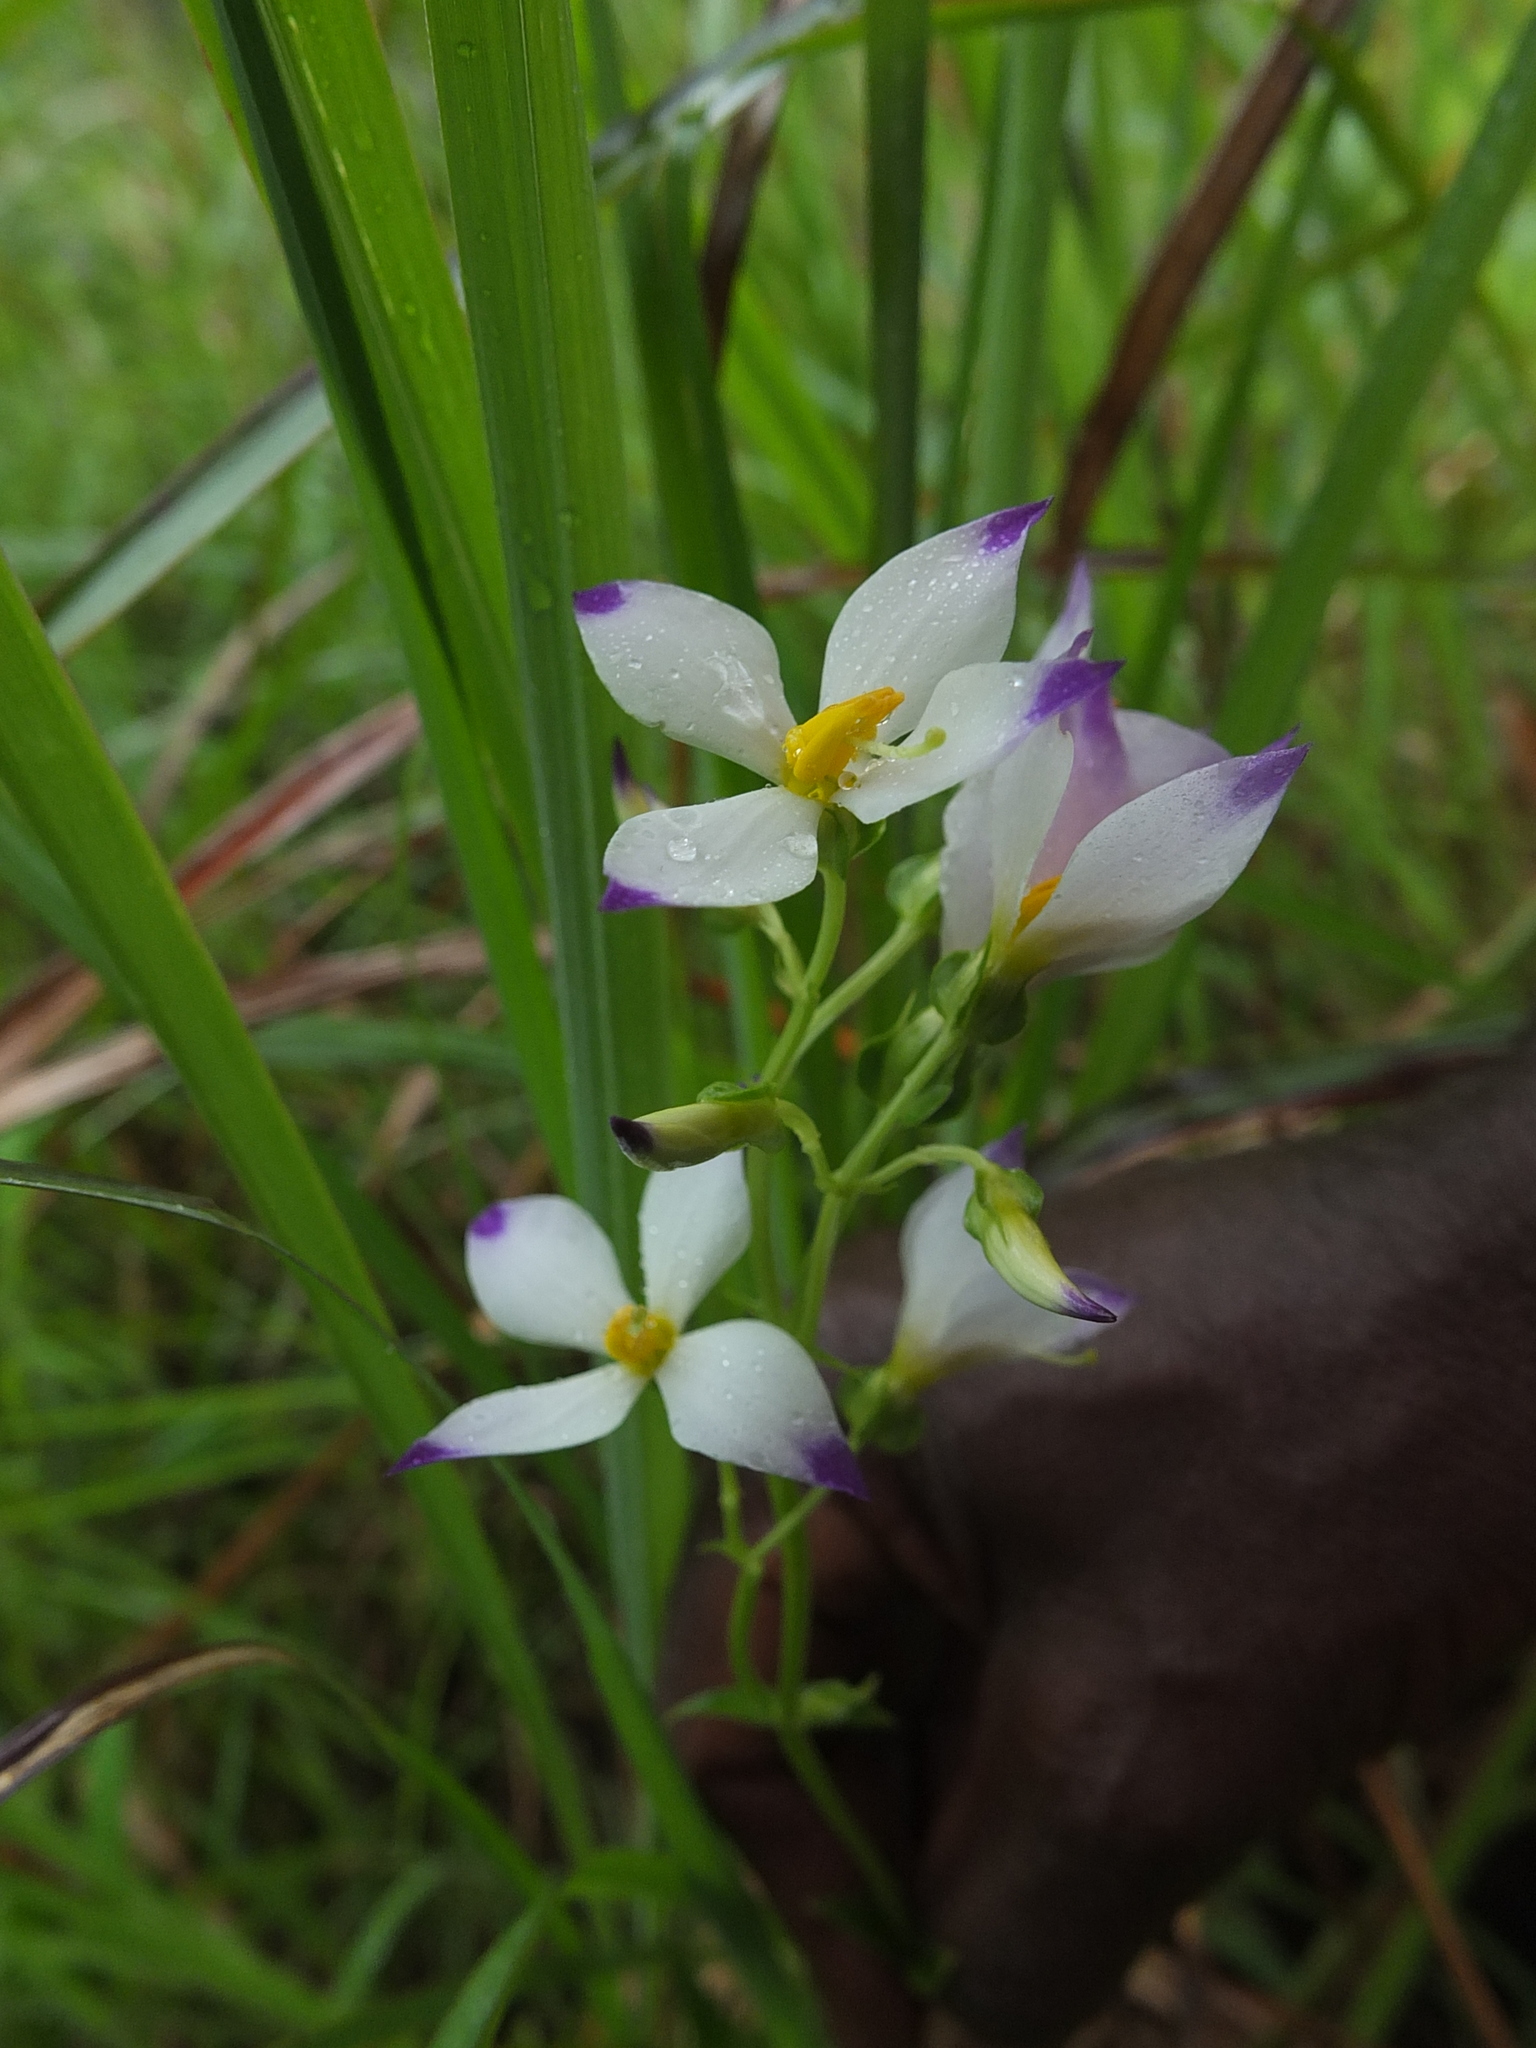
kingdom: Plantae
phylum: Tracheophyta
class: Magnoliopsida
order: Gentianales
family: Gentianaceae
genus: Exacum
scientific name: Exacum tetragonum
